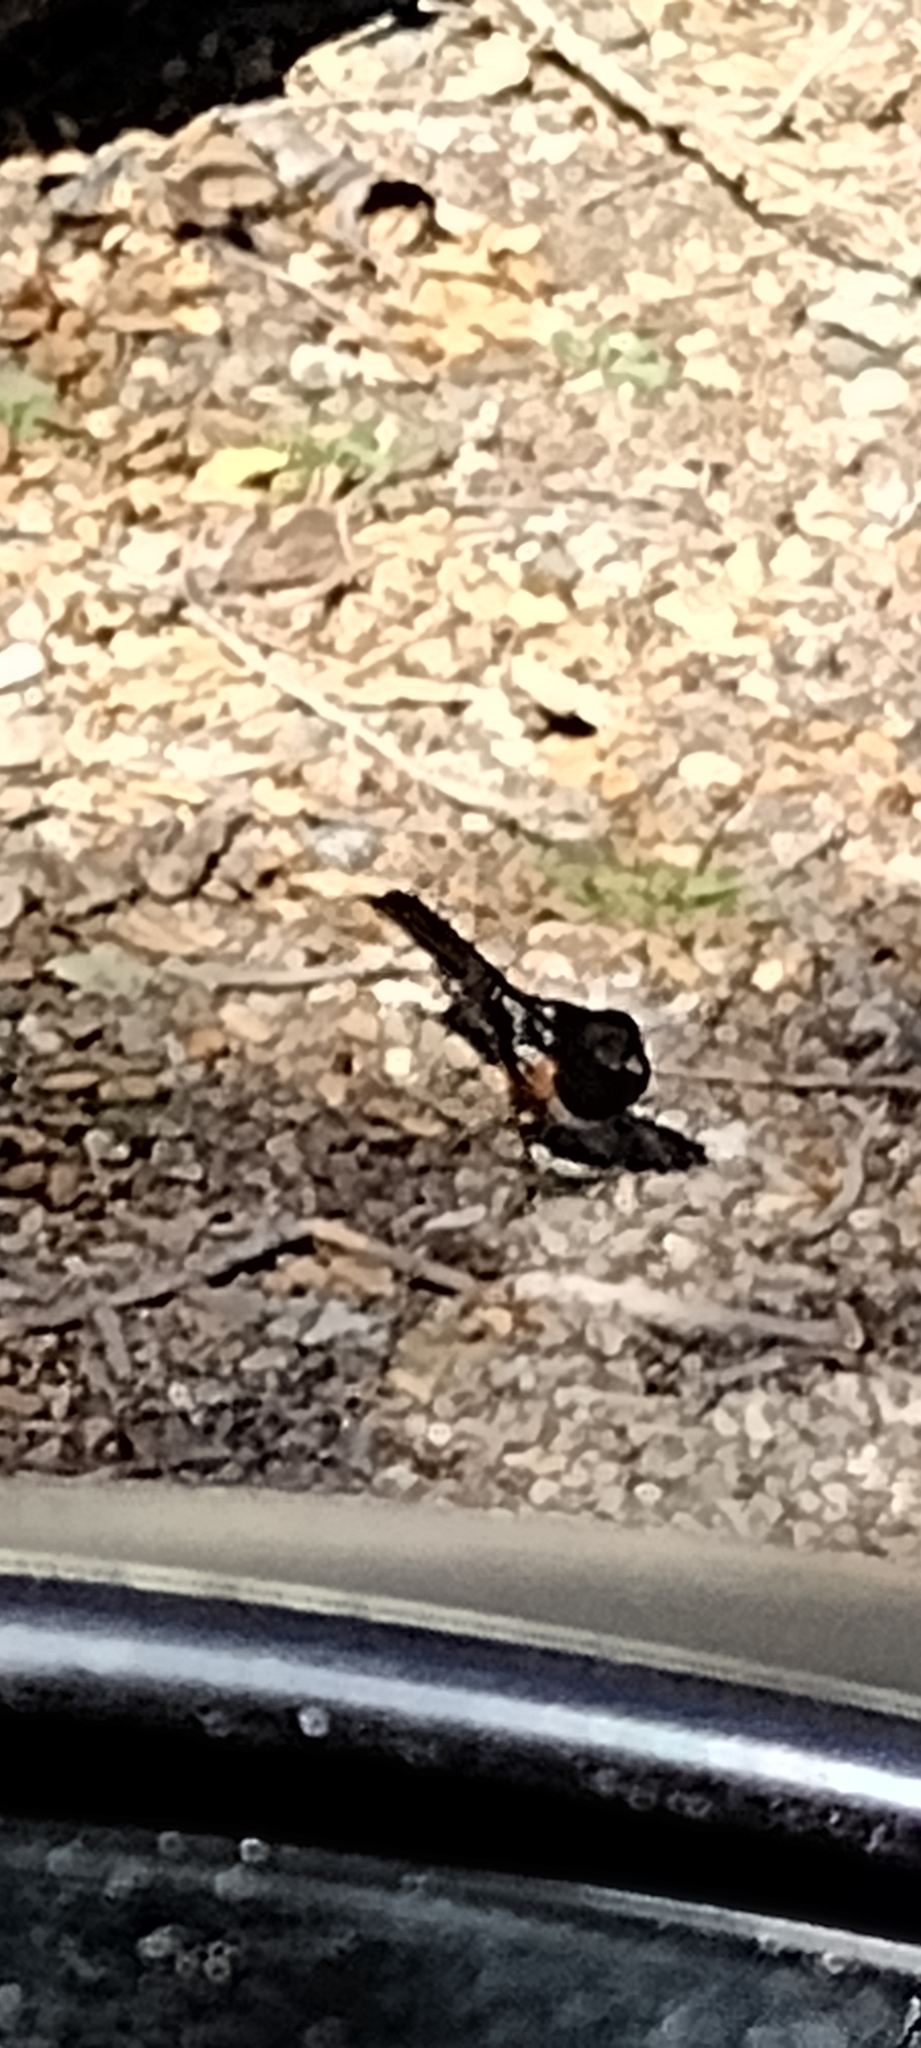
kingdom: Animalia
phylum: Chordata
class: Aves
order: Passeriformes
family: Passerellidae
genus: Pipilo
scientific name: Pipilo maculatus
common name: Spotted towhee
